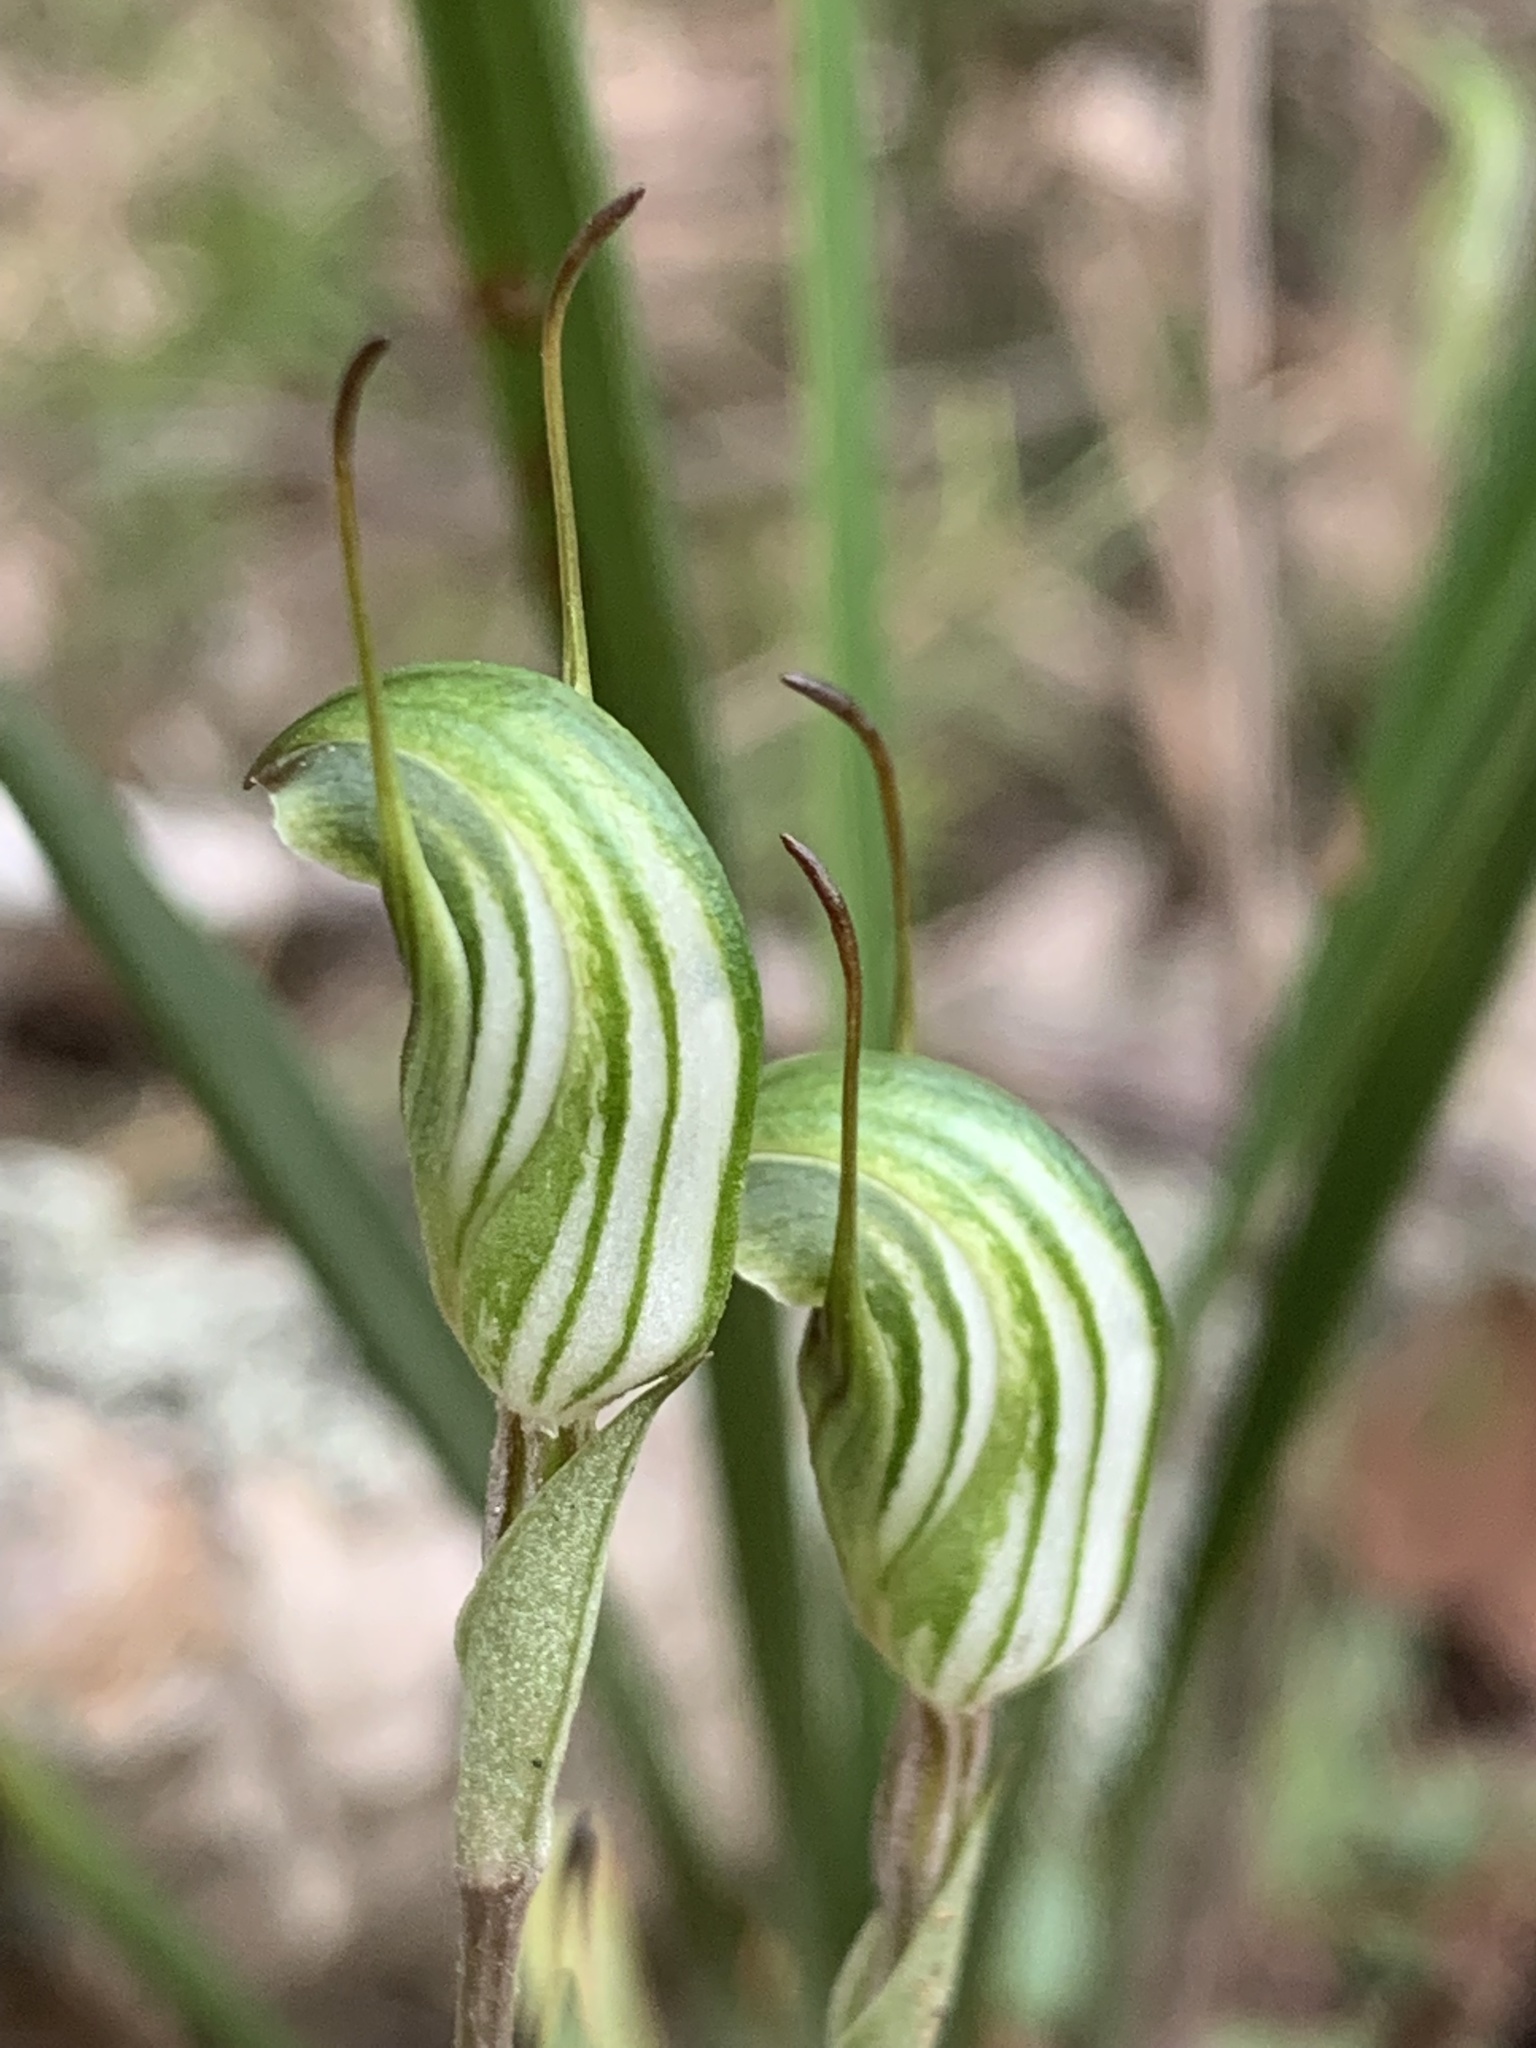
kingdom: Plantae
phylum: Tracheophyta
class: Liliopsida
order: Asparagales
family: Orchidaceae
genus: Pterostylis
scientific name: Pterostylis concinna
